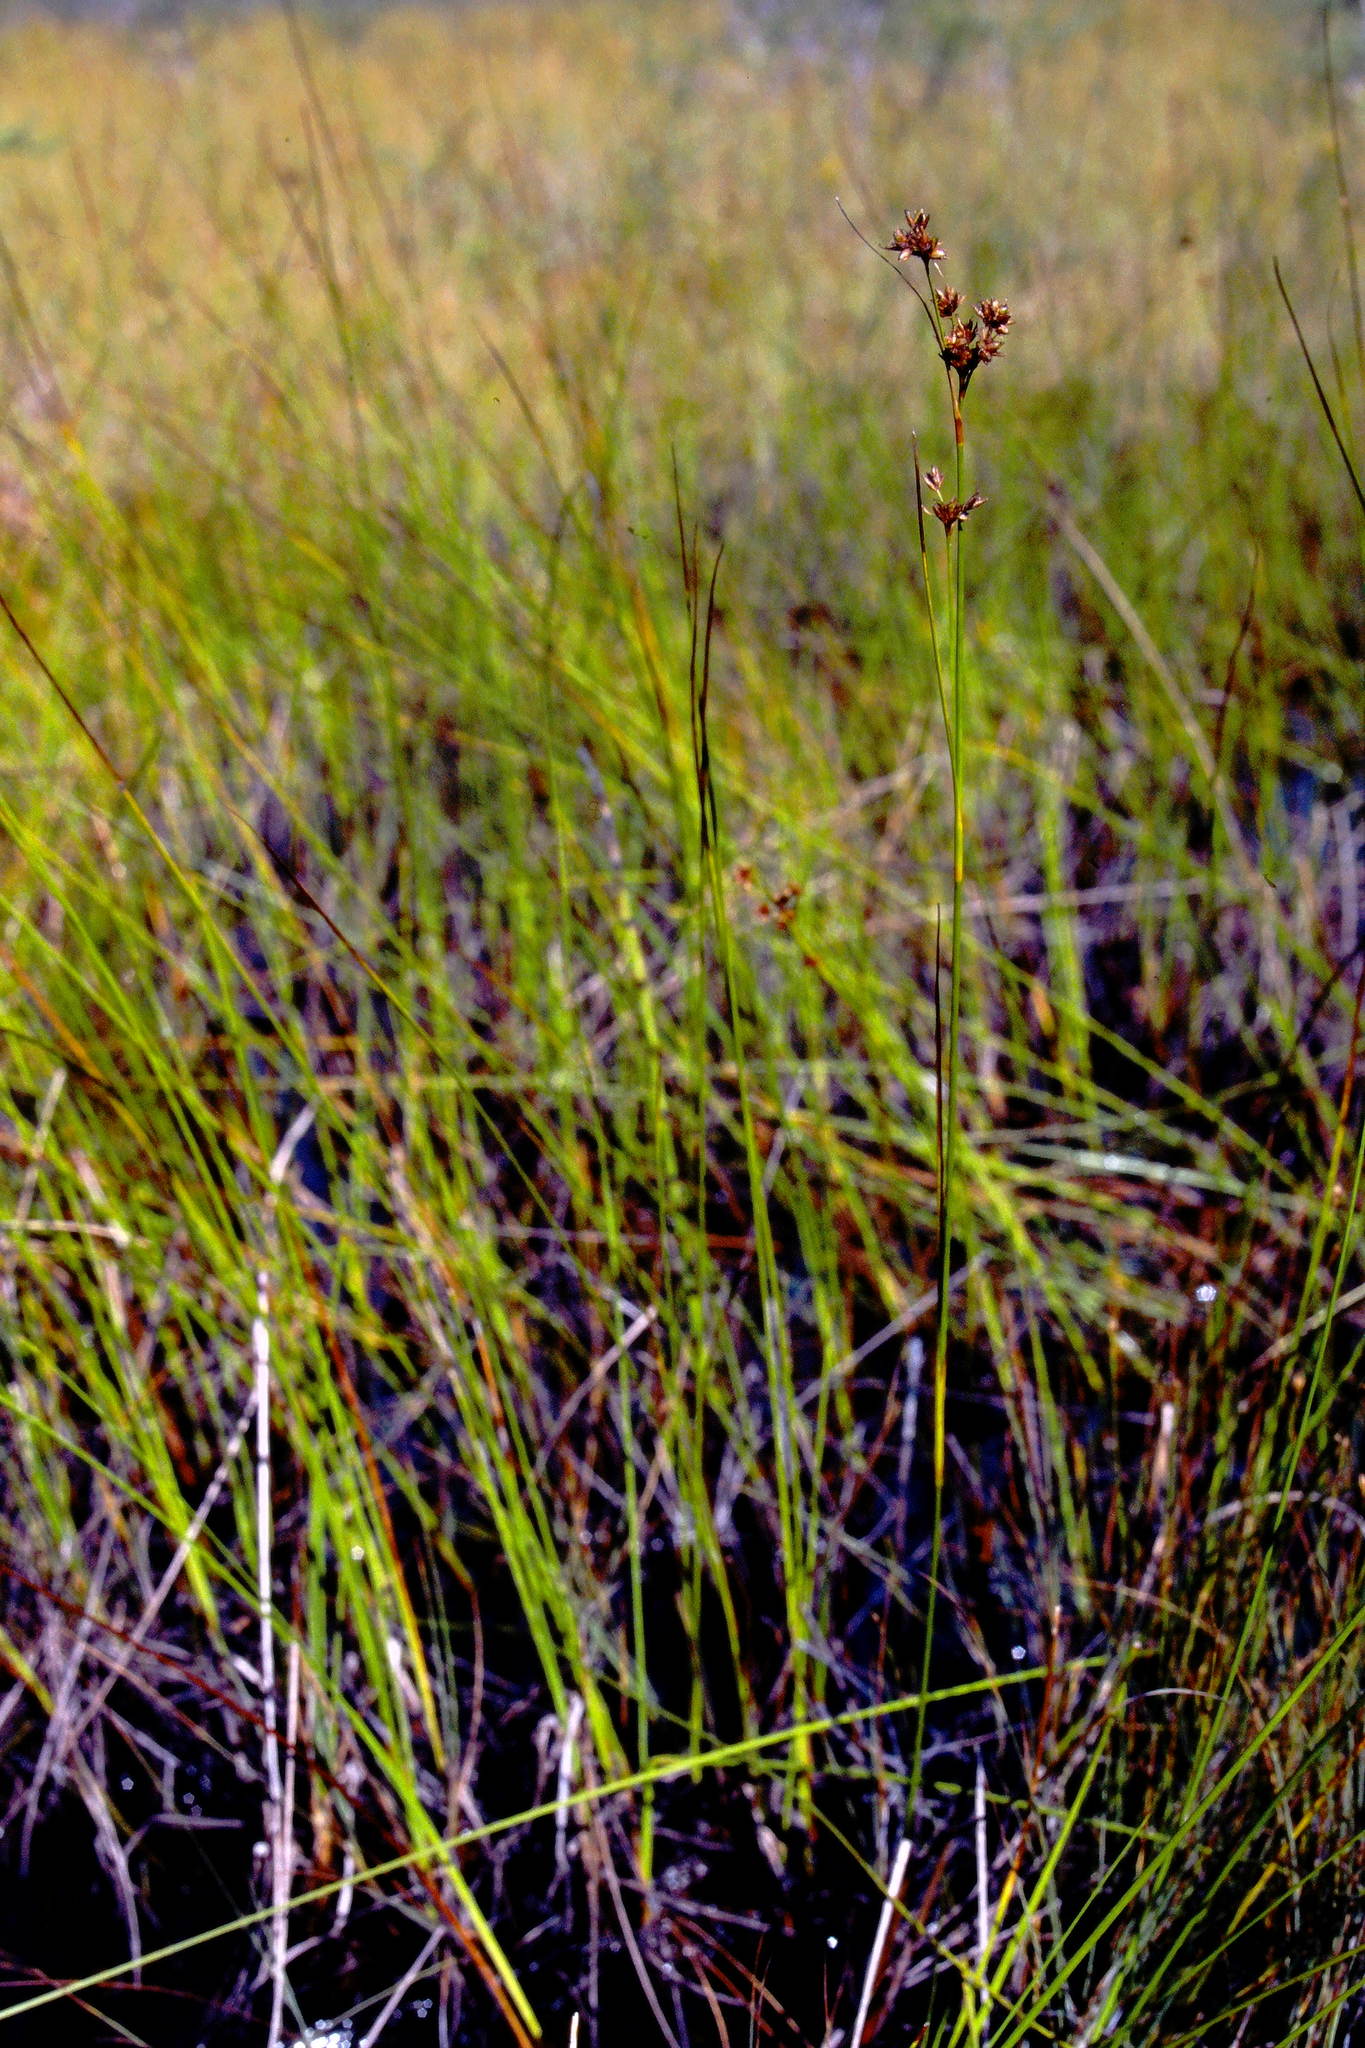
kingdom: Plantae
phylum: Tracheophyta
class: Liliopsida
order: Poales
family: Cyperaceae
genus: Cladium
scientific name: Cladium mariscoides
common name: Smooth sawgrass
